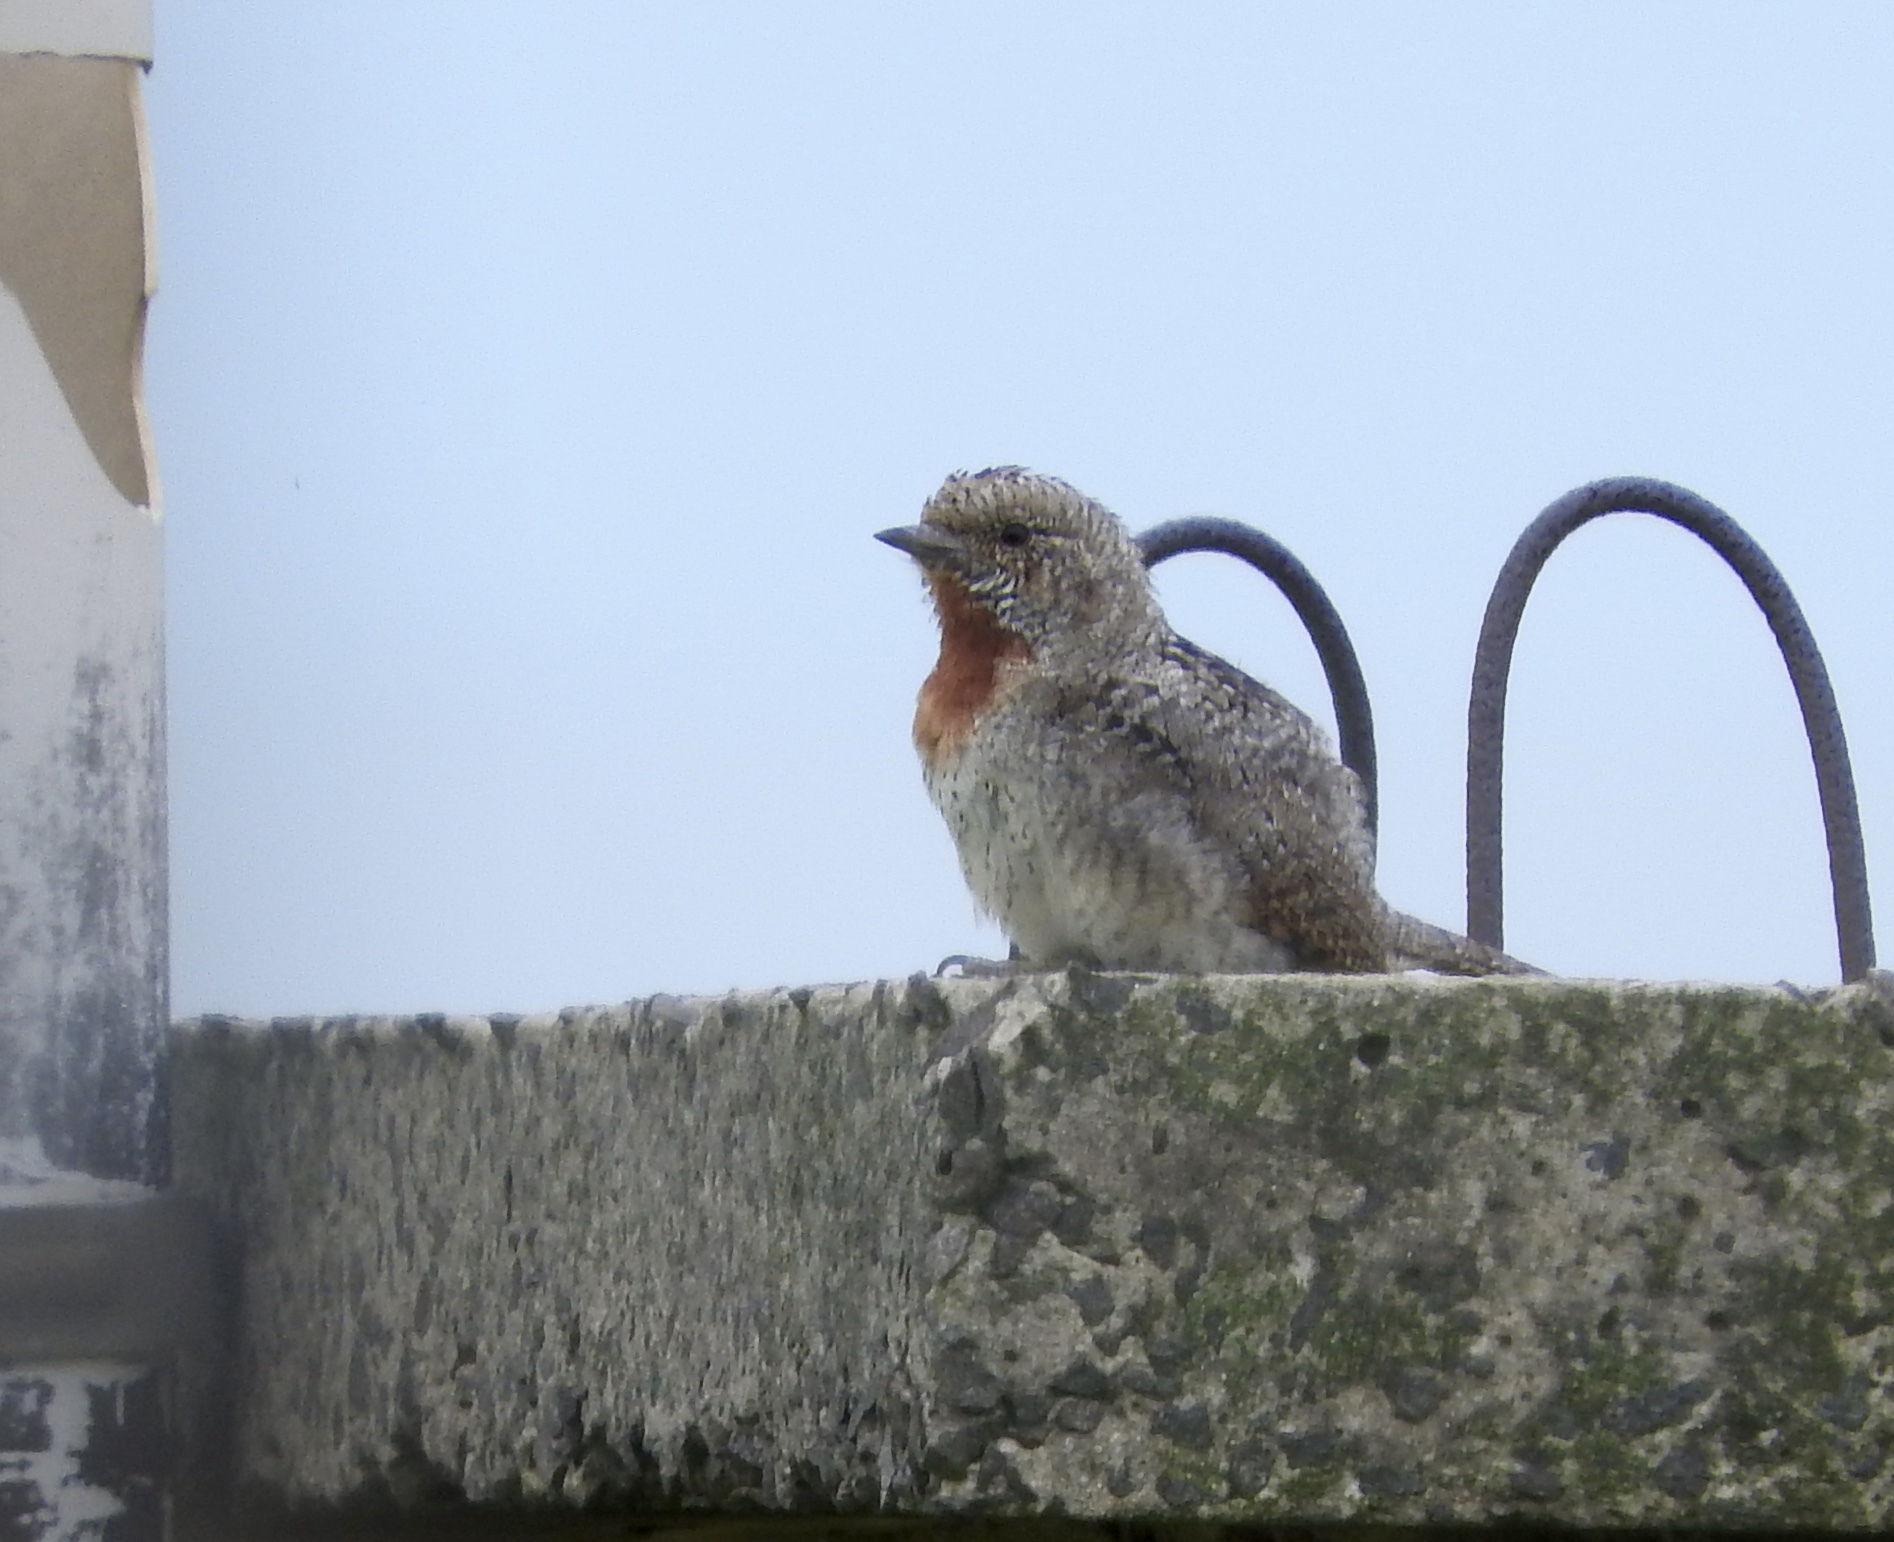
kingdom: Animalia
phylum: Chordata
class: Aves
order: Piciformes
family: Picidae
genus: Jynx
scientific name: Jynx ruficollis
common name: Red-throated wryneck
